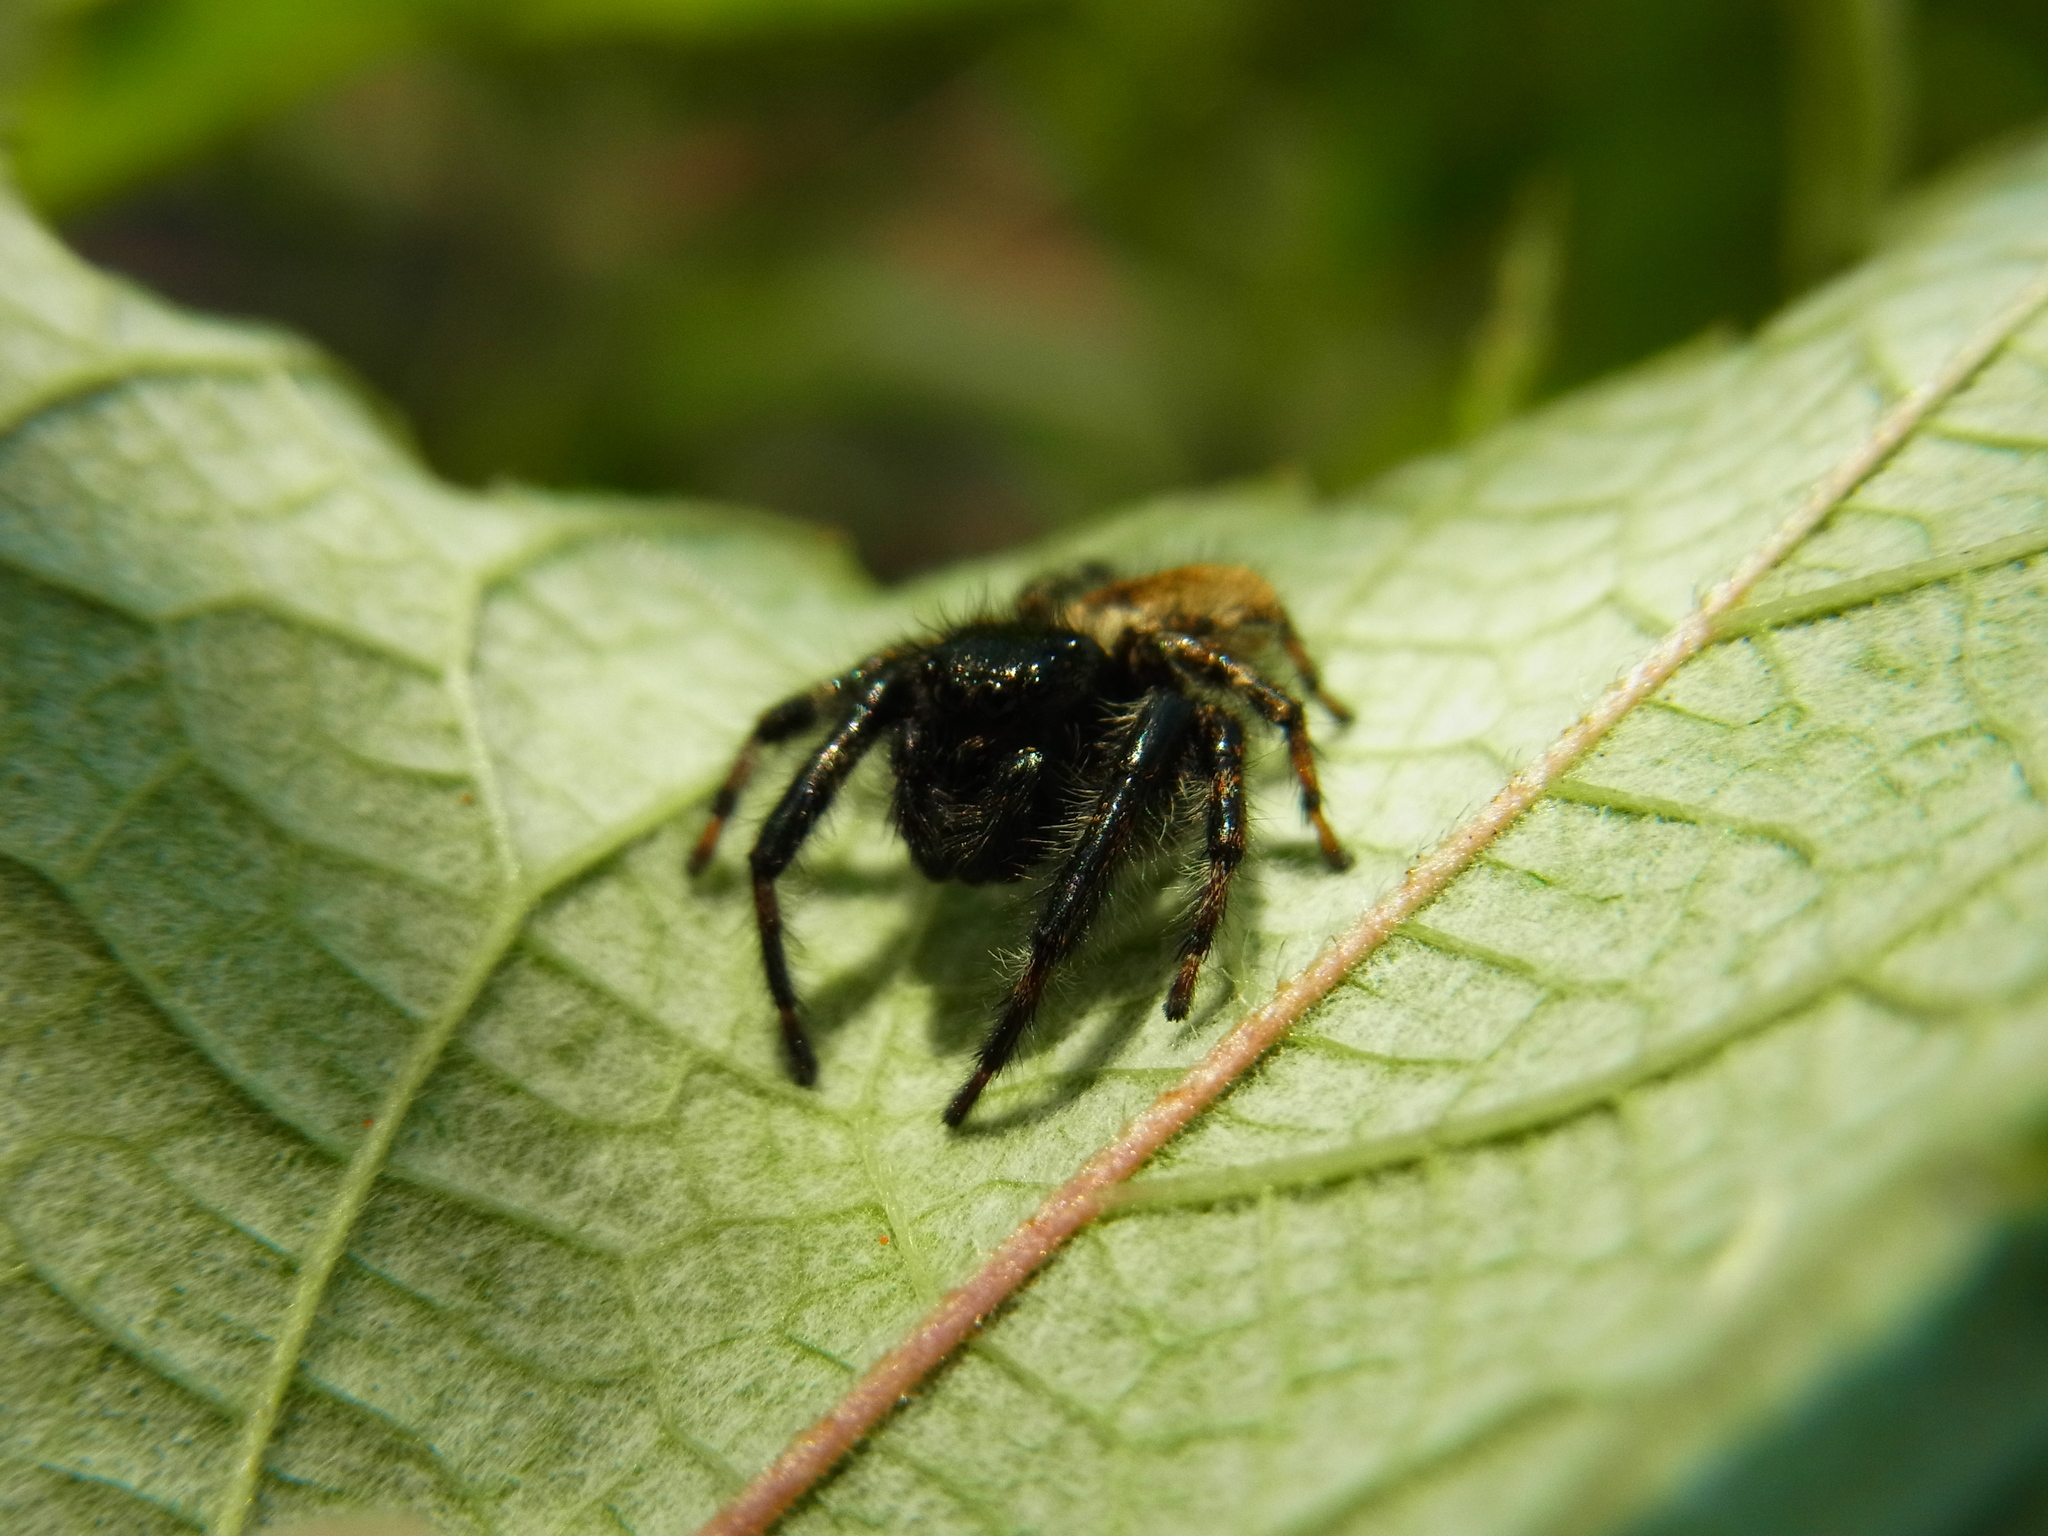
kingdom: Animalia
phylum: Arthropoda
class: Arachnida
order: Araneae
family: Salticidae
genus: Carrhotus
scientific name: Carrhotus xanthogramma
